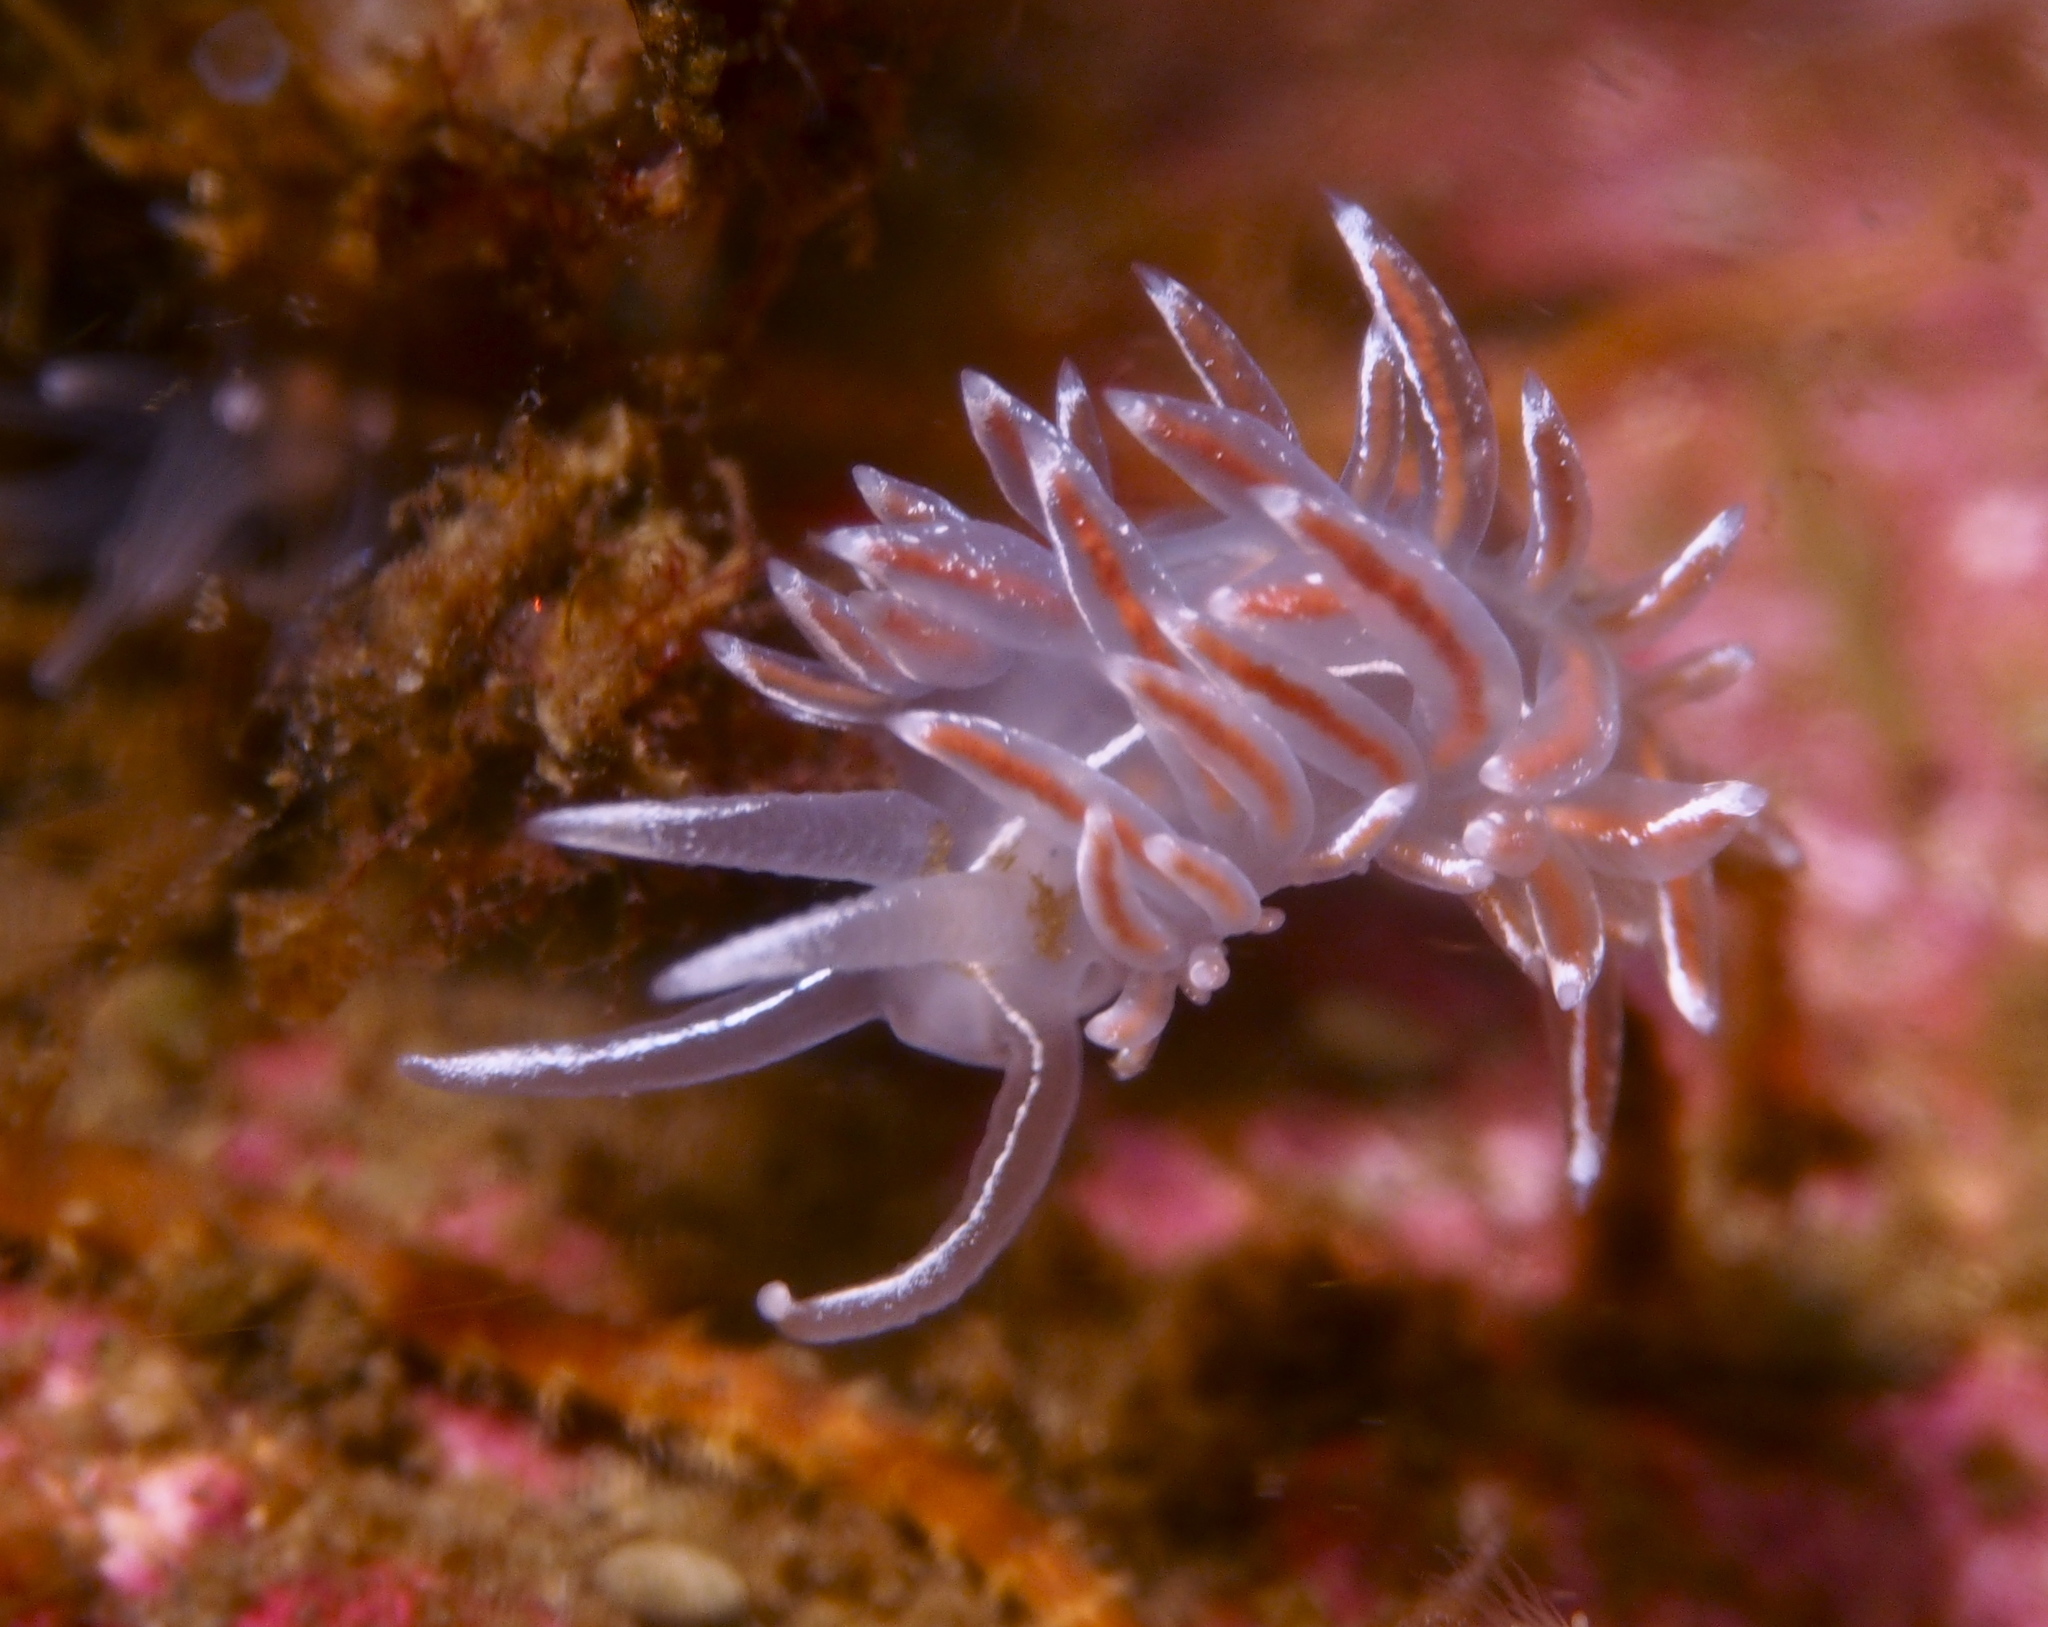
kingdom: Animalia
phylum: Mollusca
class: Gastropoda
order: Nudibranchia
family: Coryphellidae
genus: Coryphella
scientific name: Coryphella lineata
